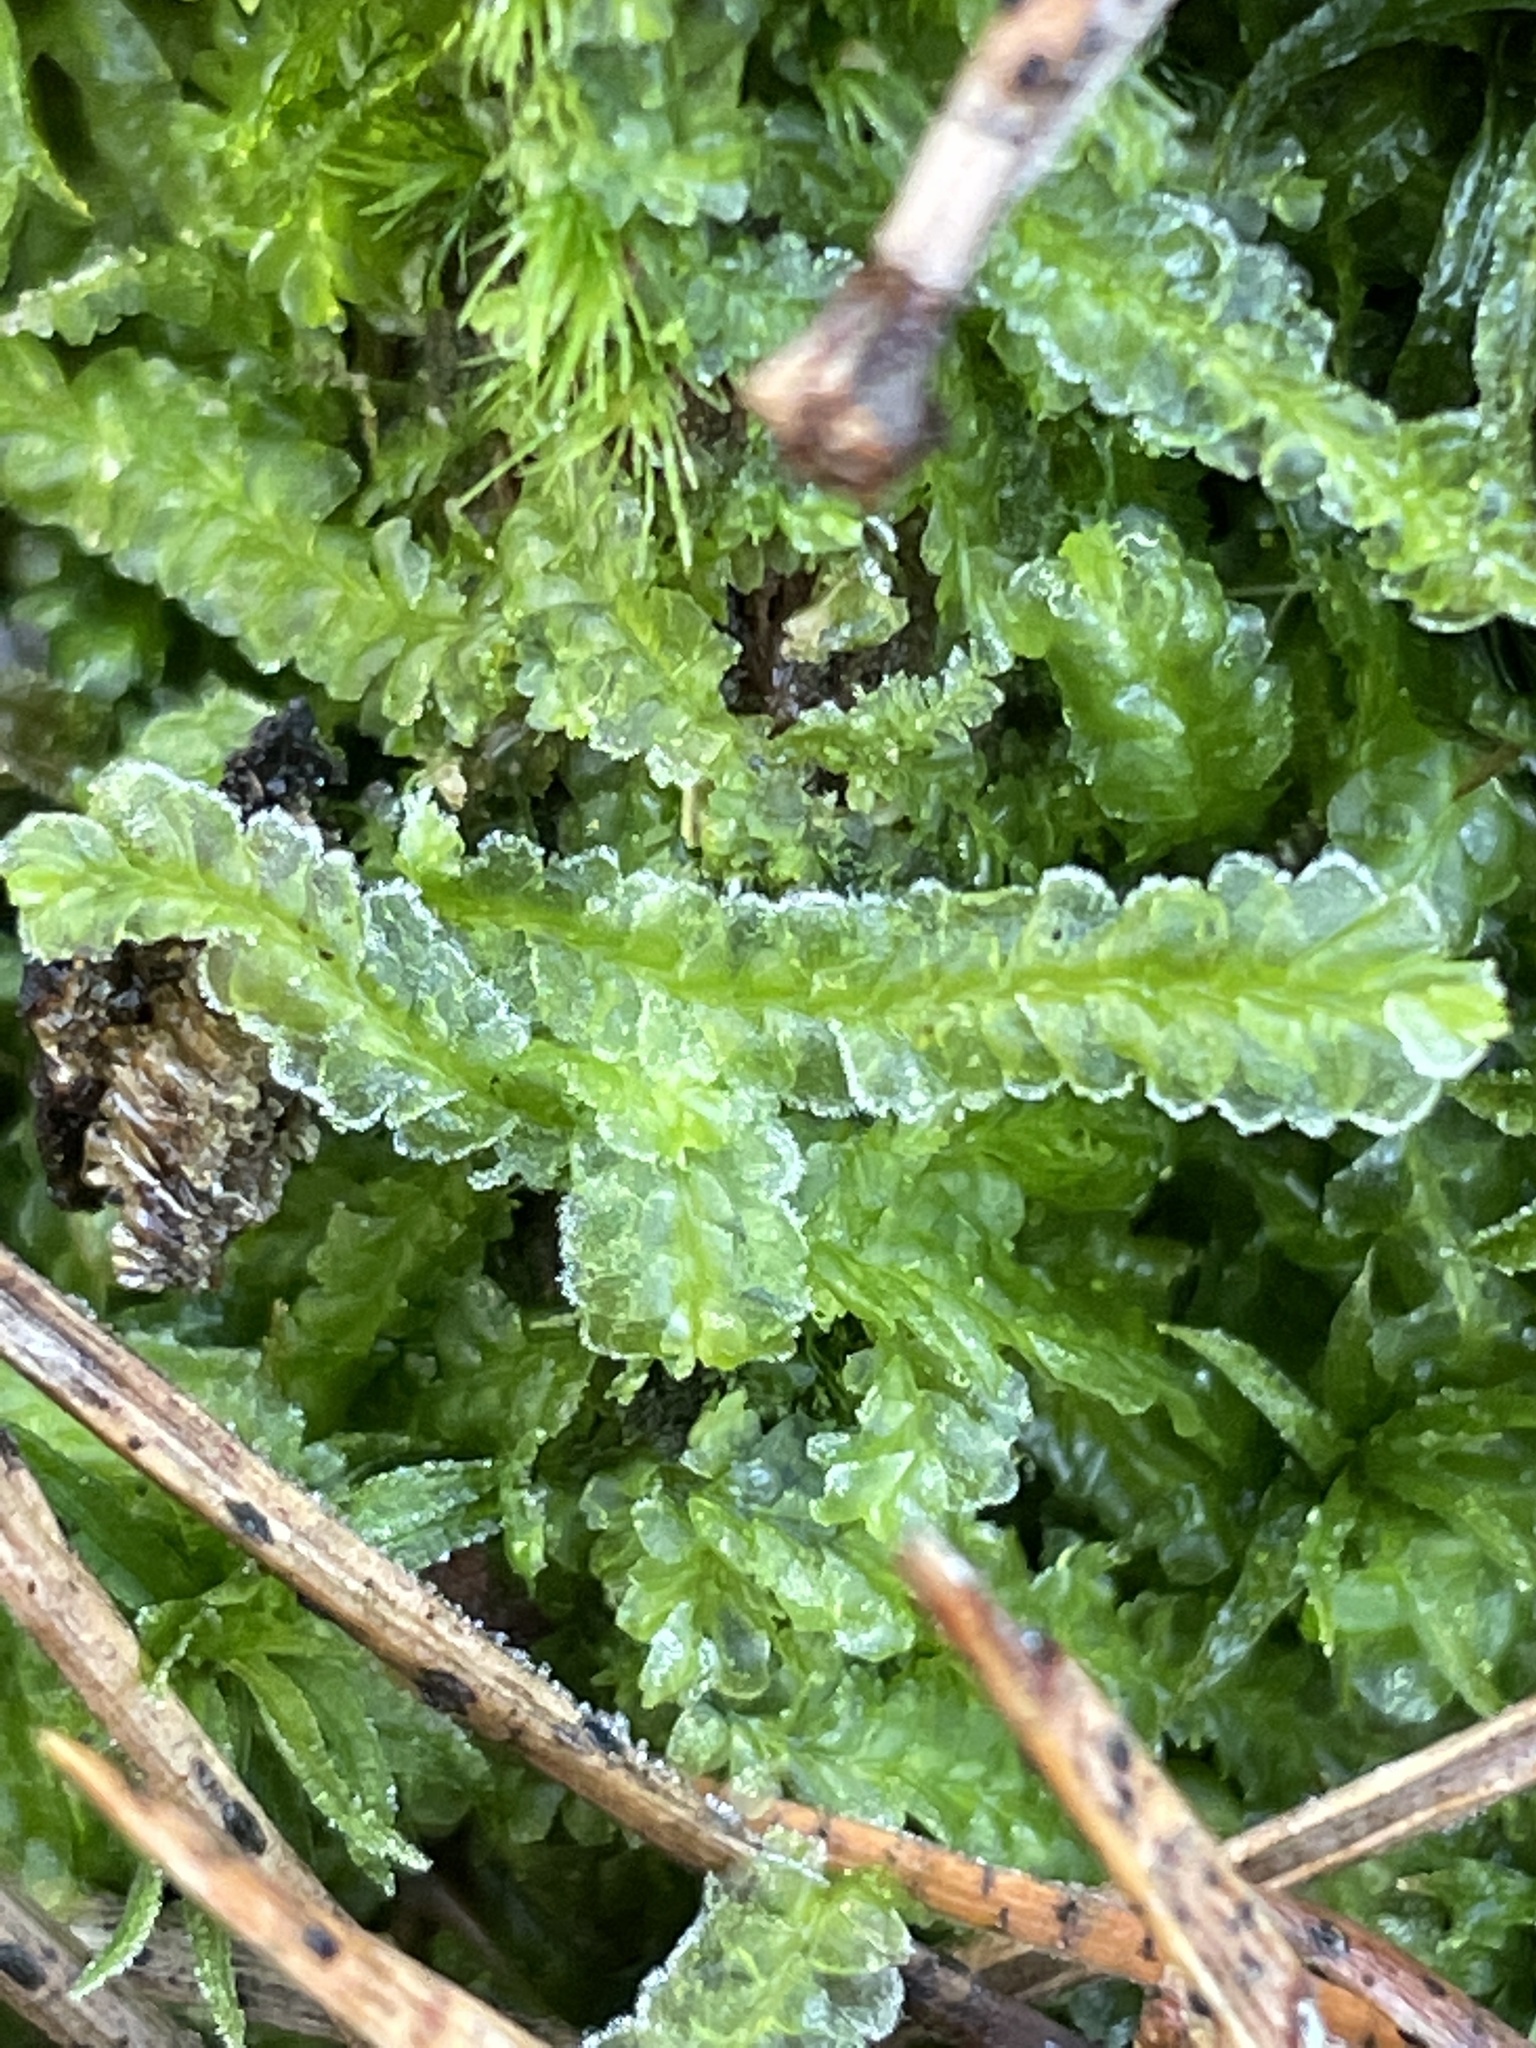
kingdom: Plantae
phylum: Marchantiophyta
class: Jungermanniopsida
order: Jungermanniales
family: Lophocoleaceae
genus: Lophocolea
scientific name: Lophocolea semiteres
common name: Southern crestwort
